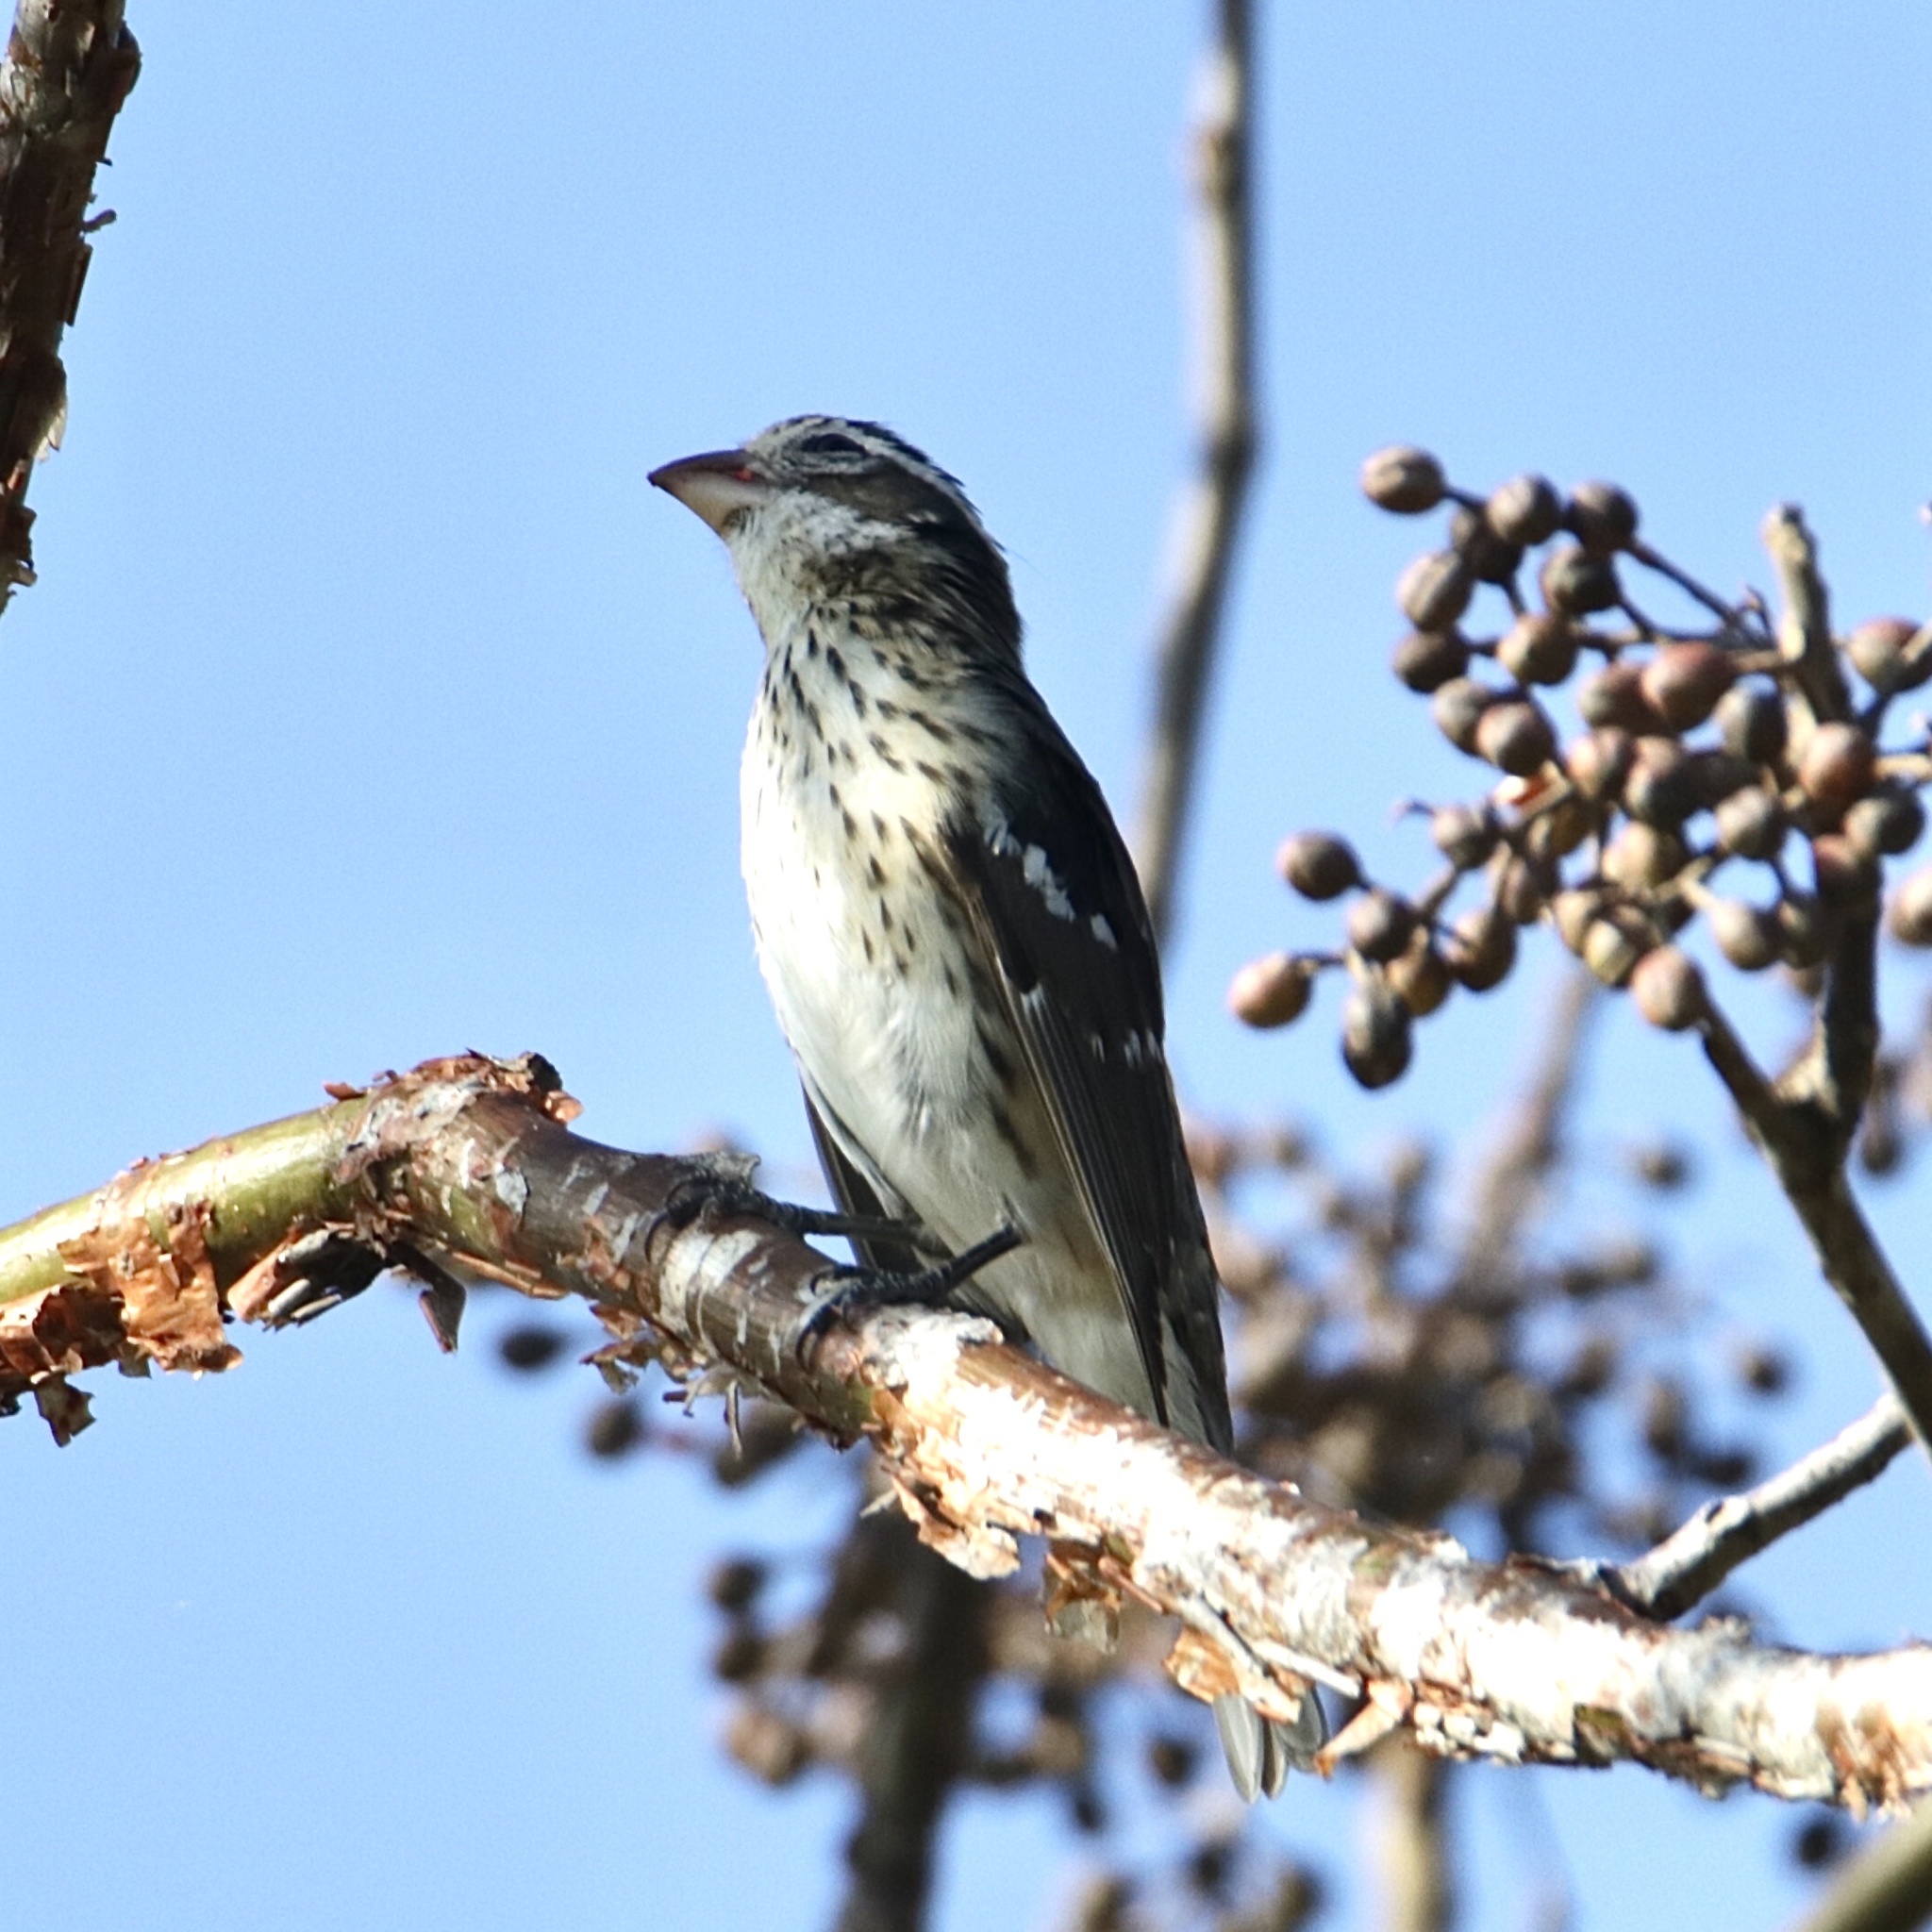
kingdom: Animalia
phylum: Chordata
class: Aves
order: Passeriformes
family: Cardinalidae
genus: Pheucticus
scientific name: Pheucticus ludovicianus
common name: Rose-breasted grosbeak
